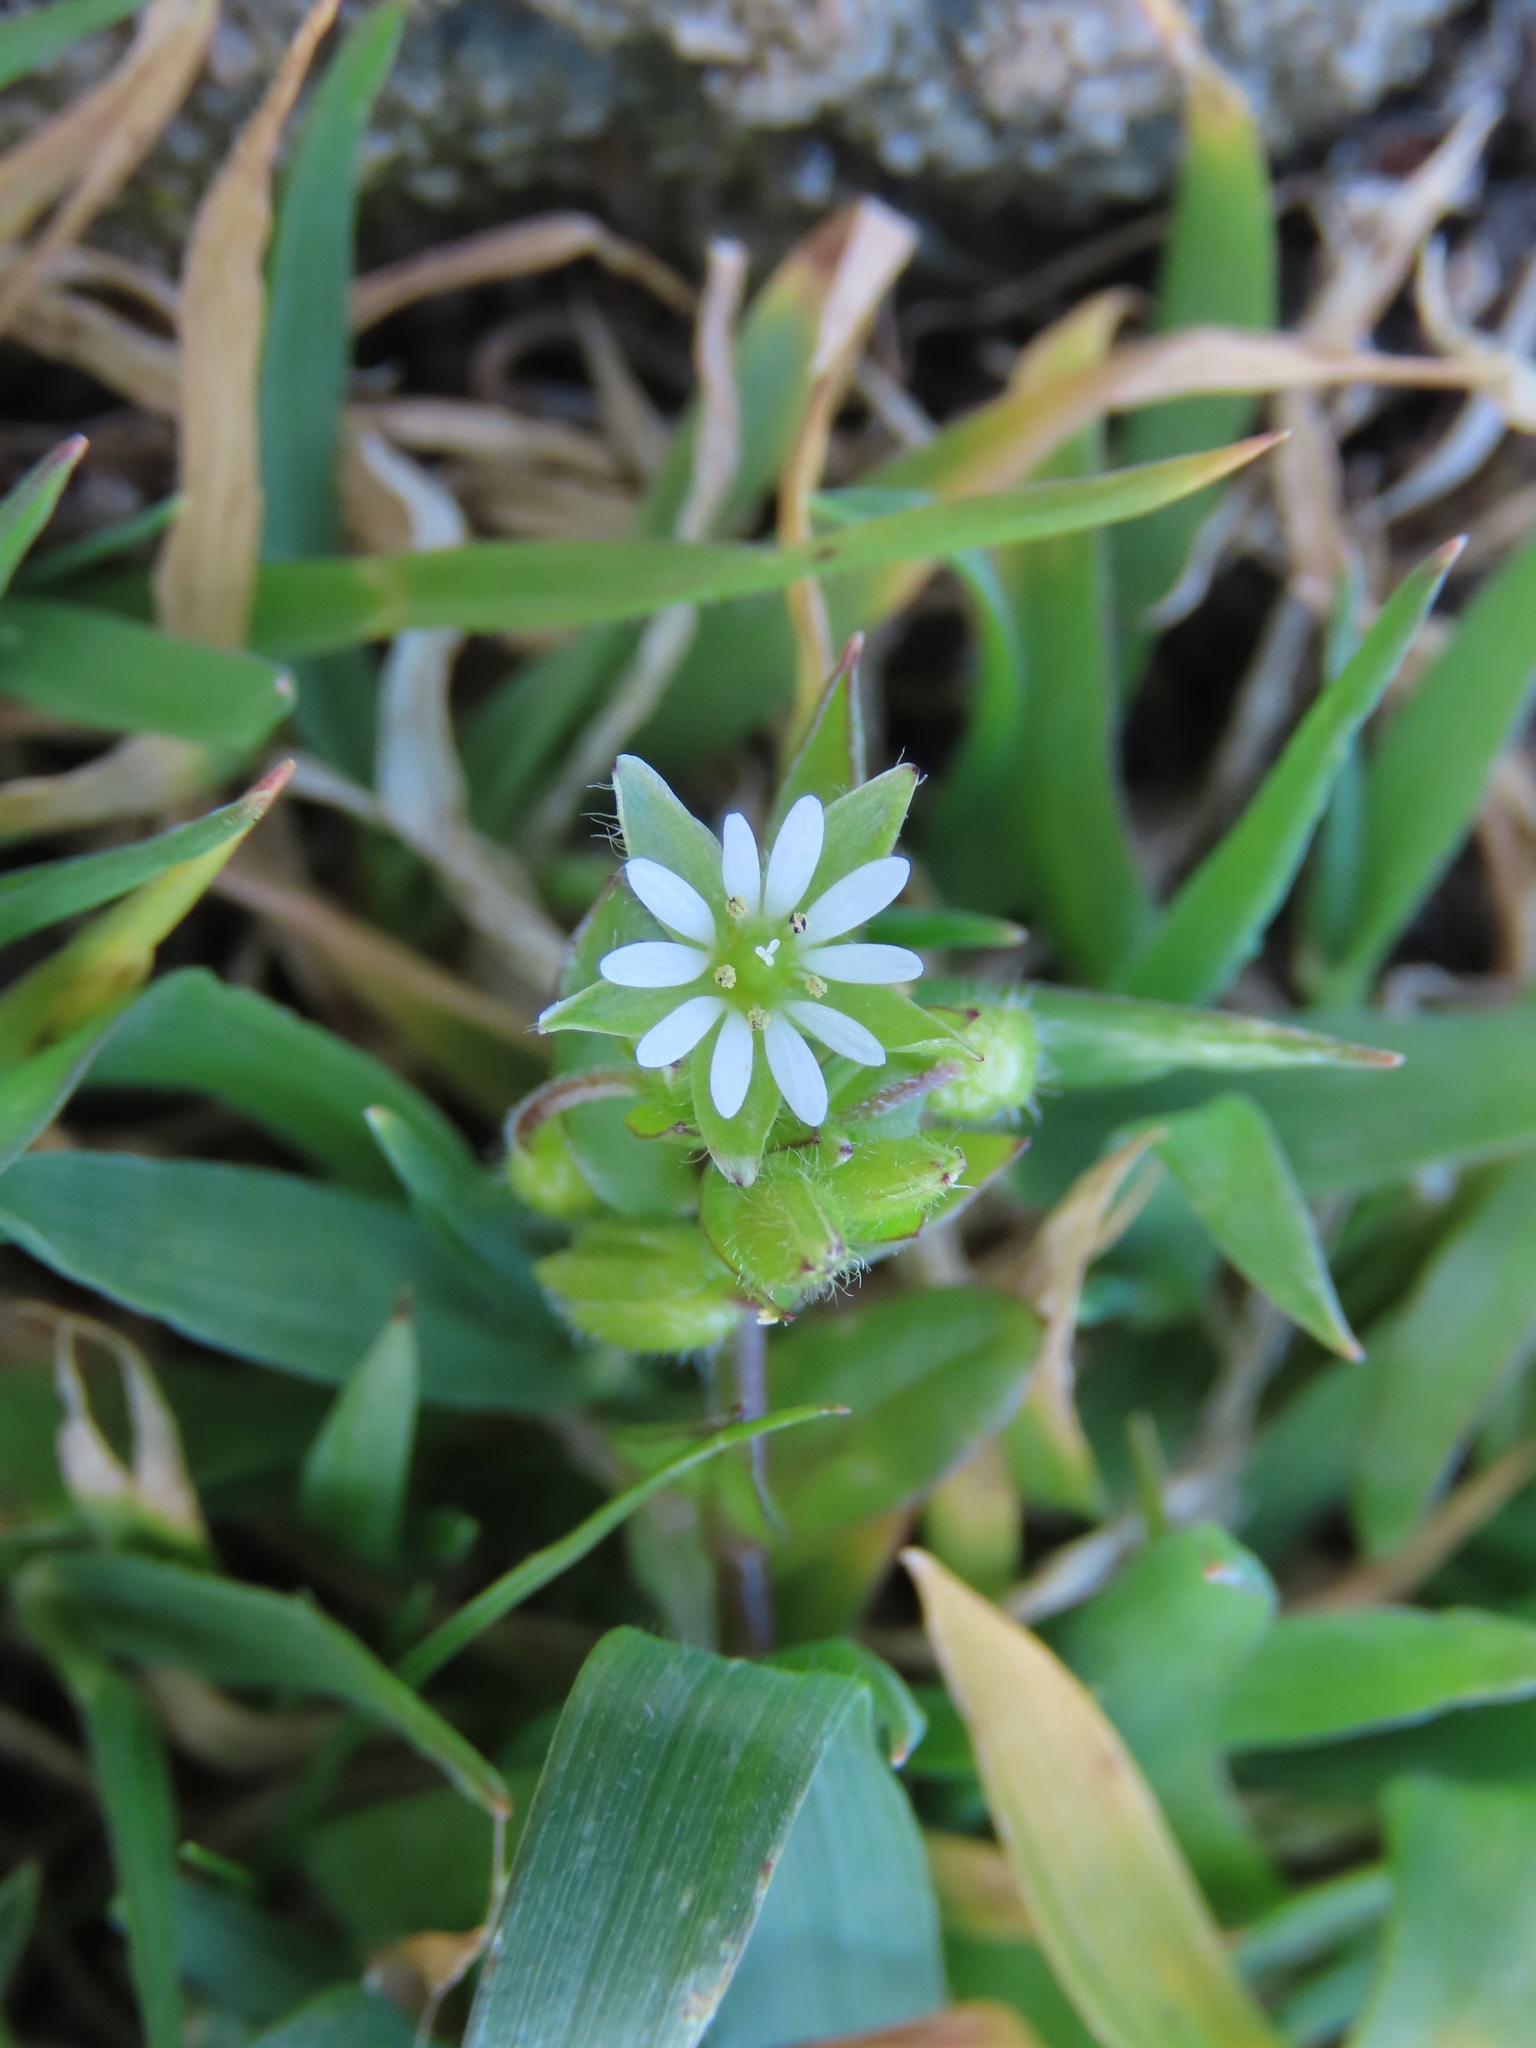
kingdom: Plantae
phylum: Tracheophyta
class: Magnoliopsida
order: Caryophyllales
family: Caryophyllaceae
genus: Stellaria
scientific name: Stellaria media
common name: Common chickweed
